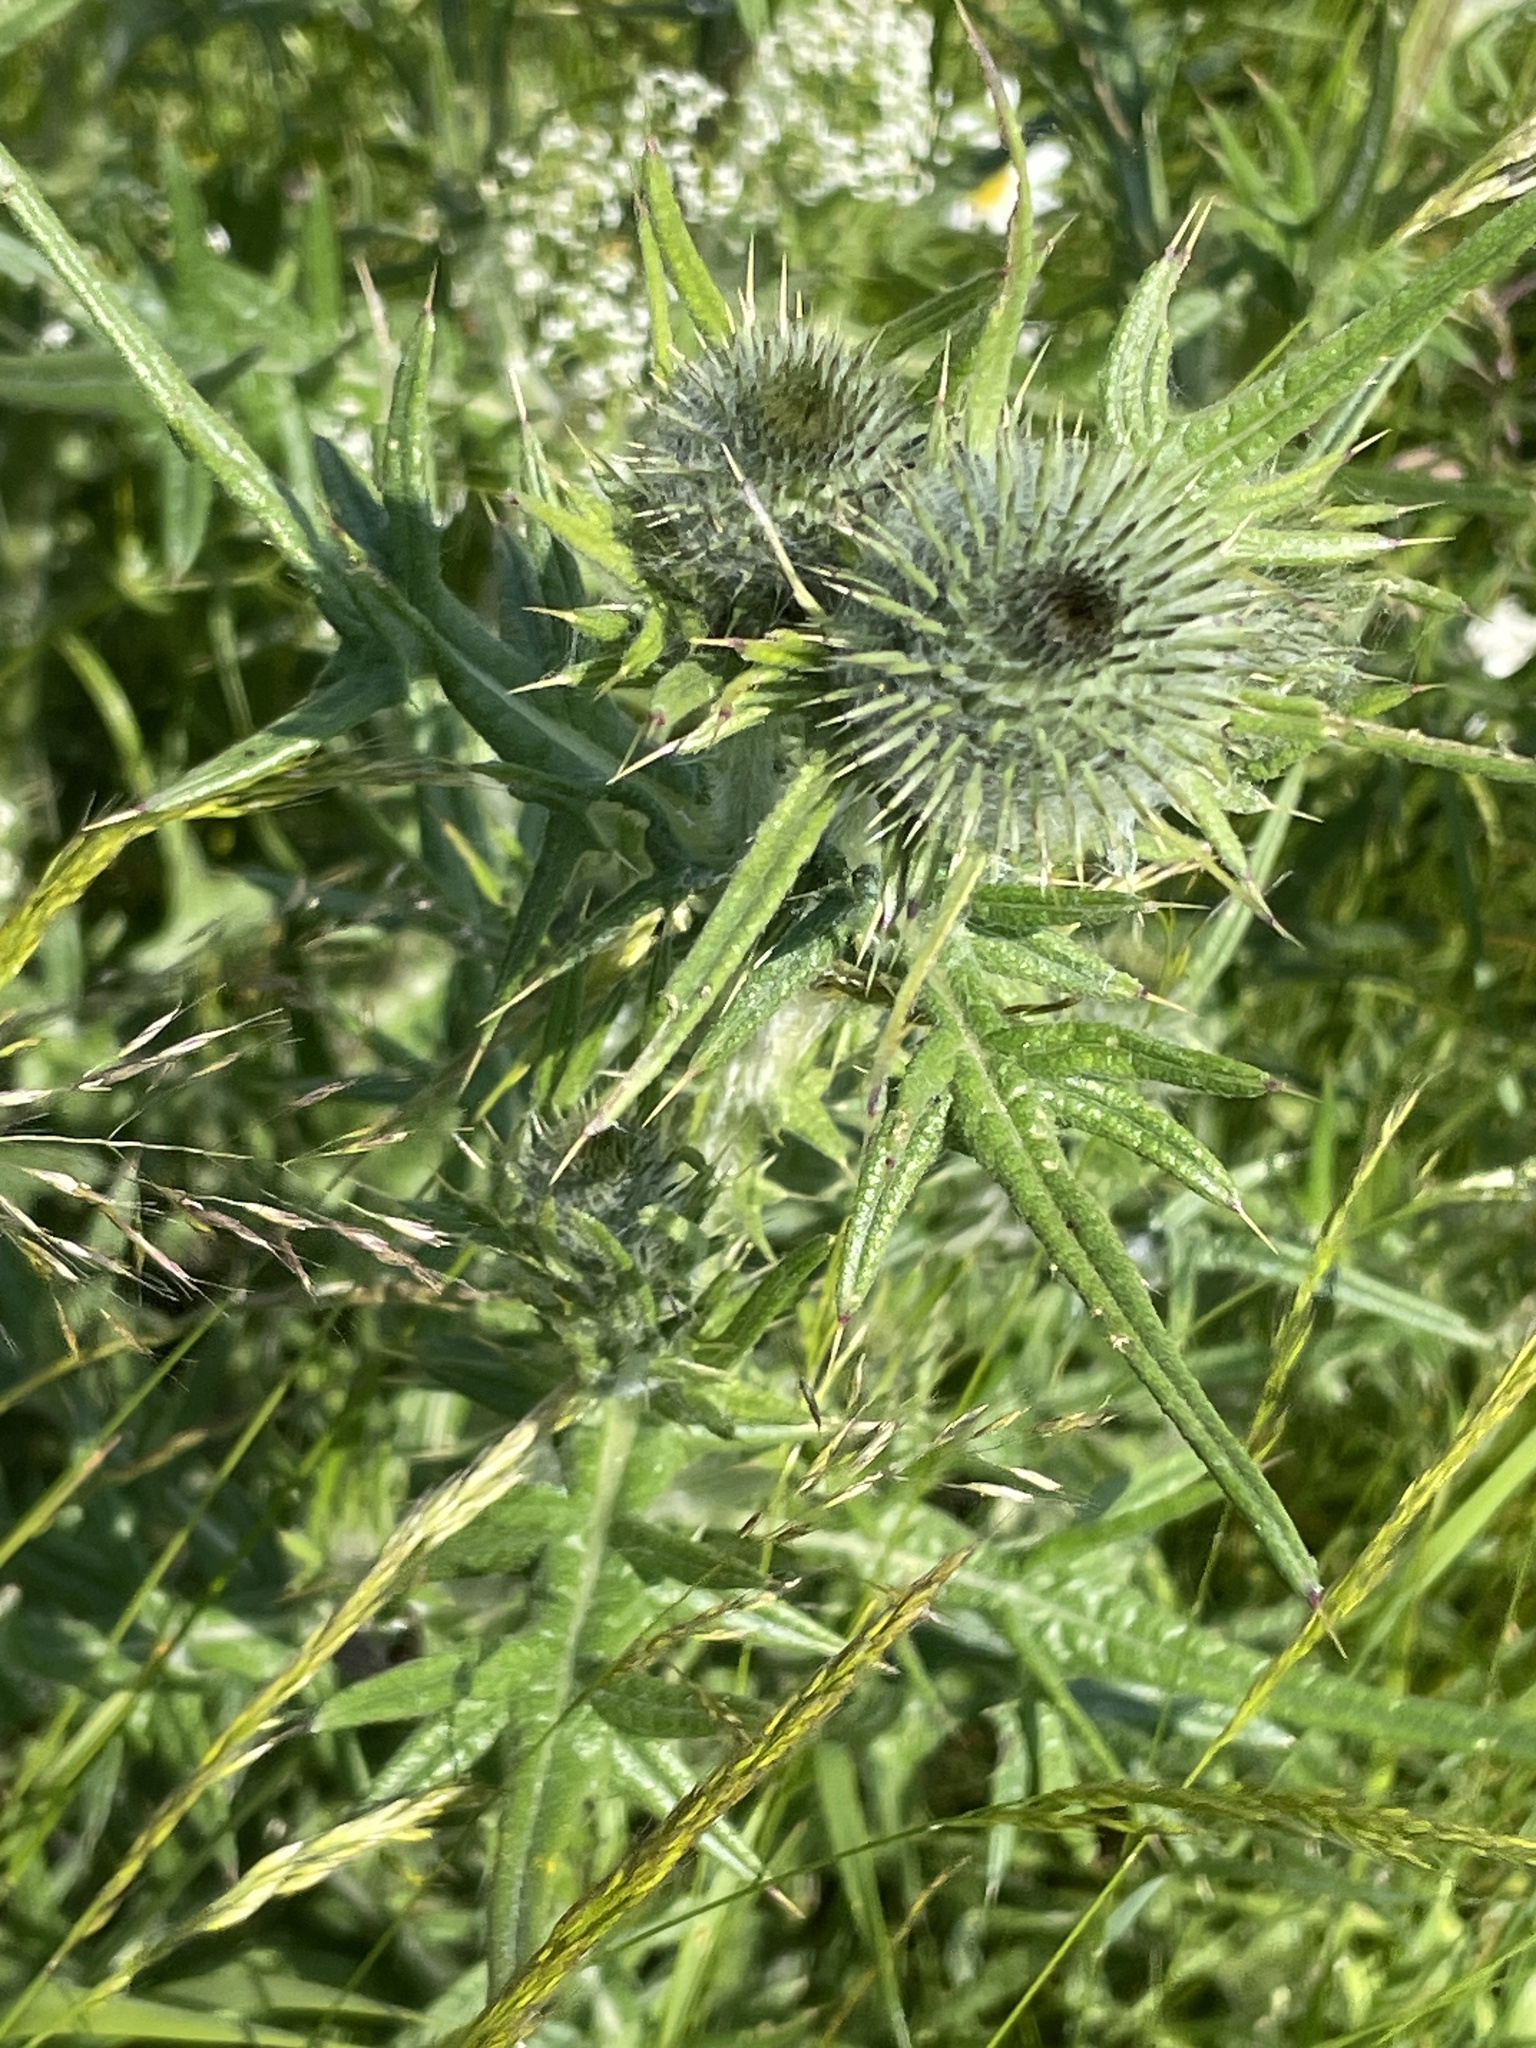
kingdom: Plantae
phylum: Tracheophyta
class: Magnoliopsida
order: Asterales
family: Asteraceae
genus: Cirsium
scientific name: Cirsium vulgare
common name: Bull thistle
